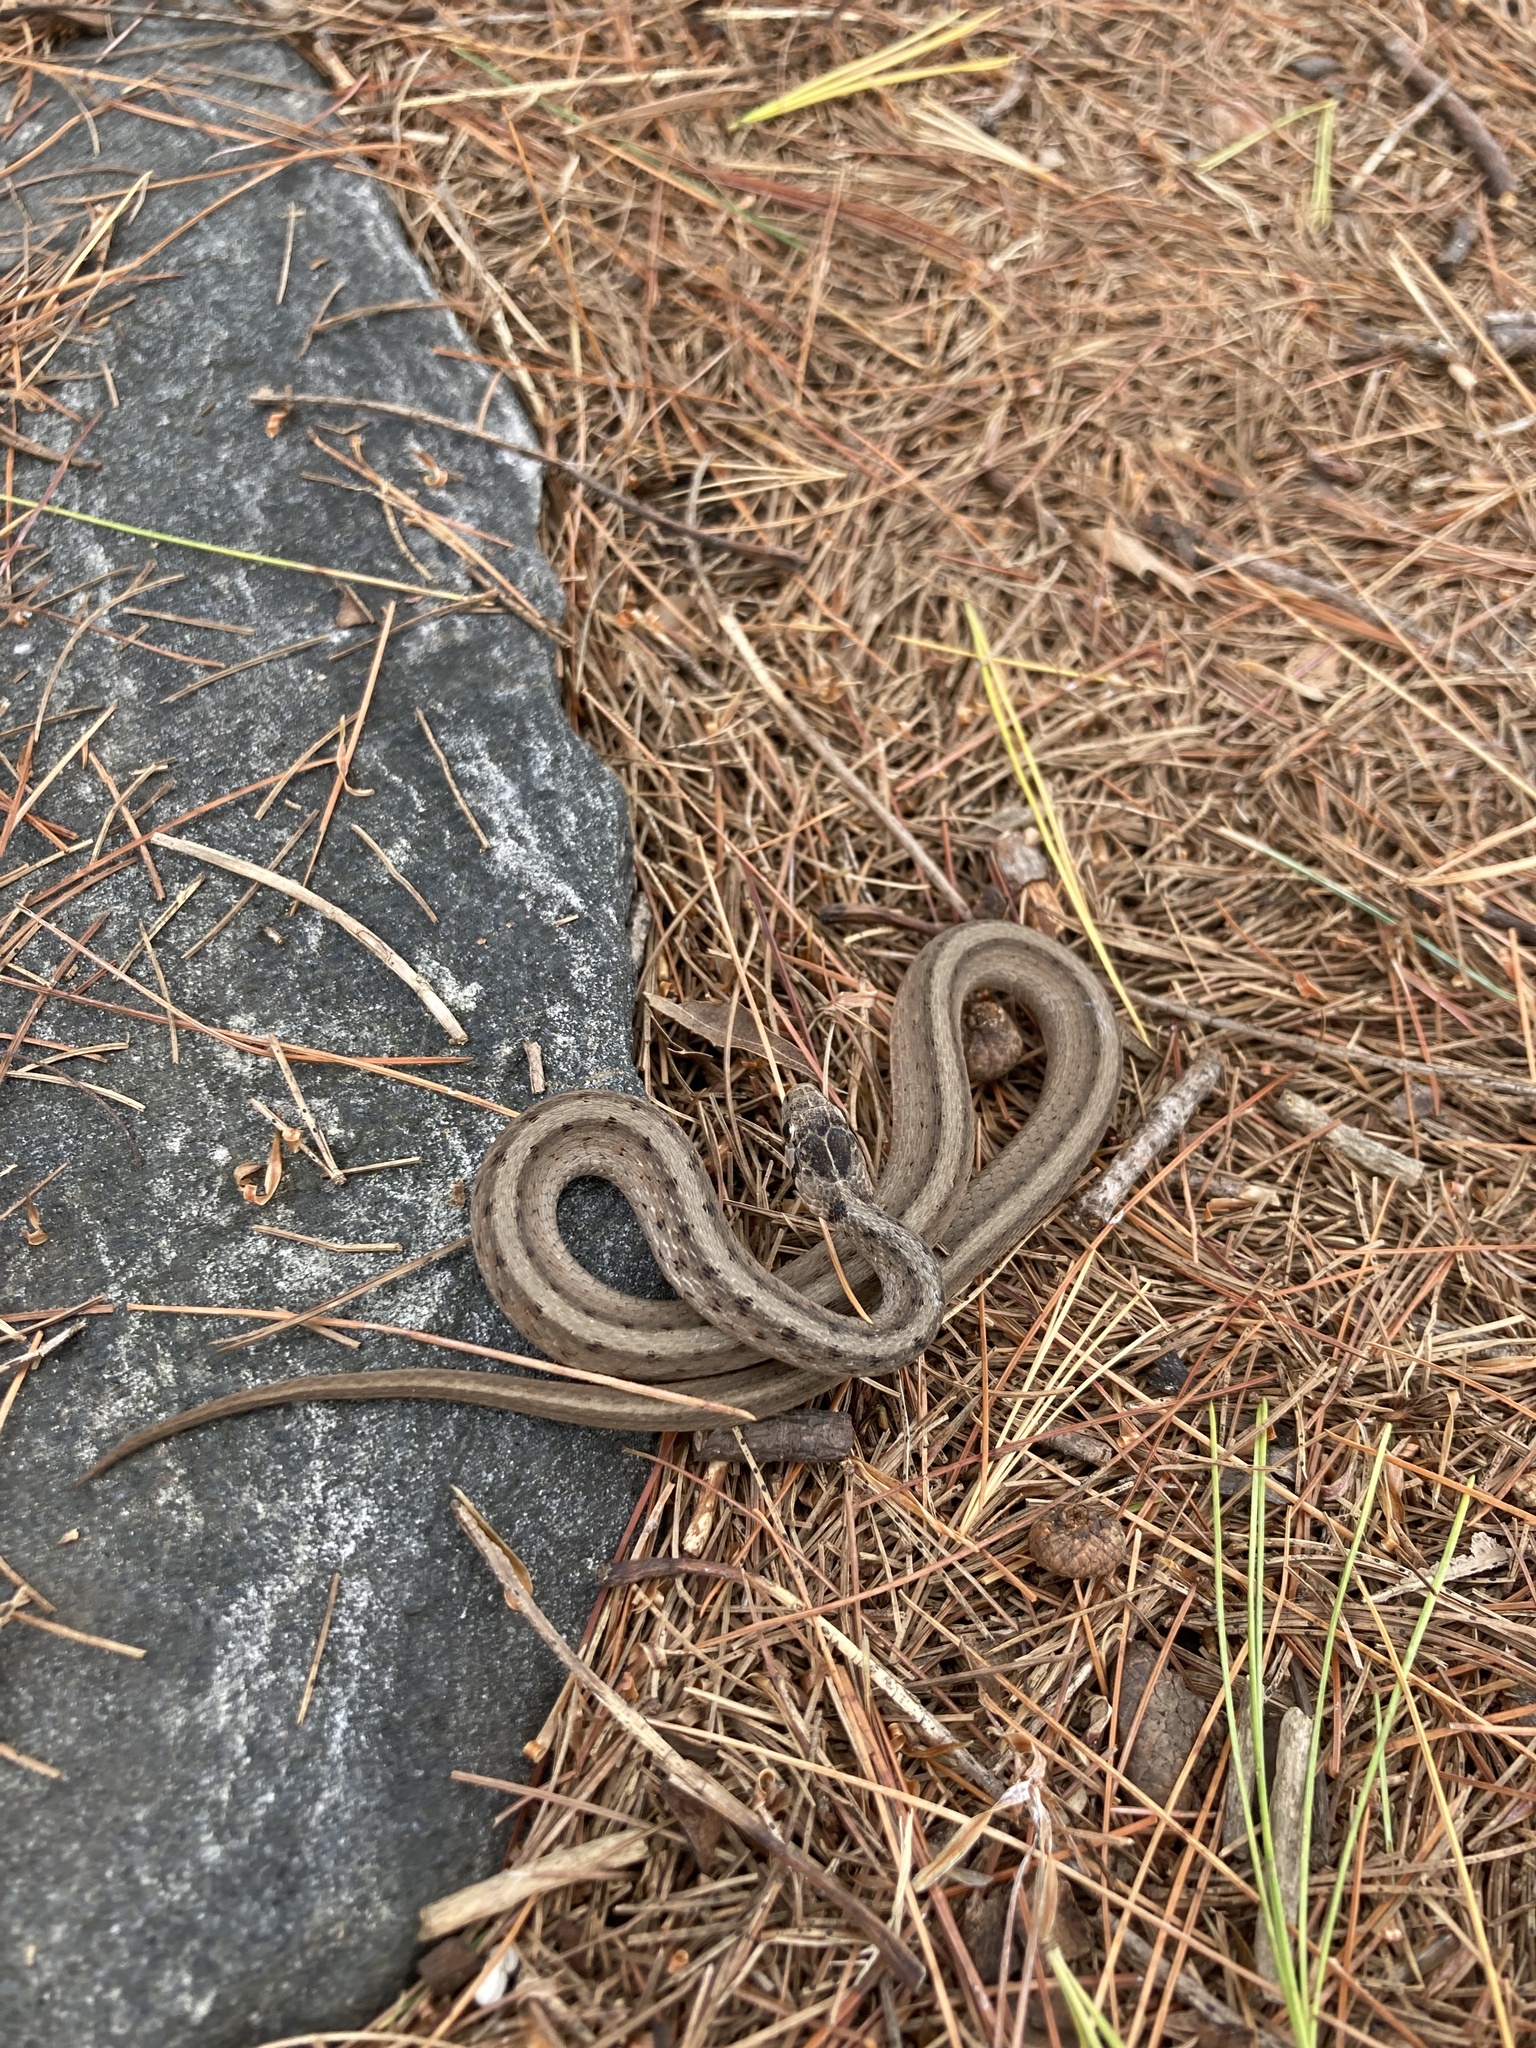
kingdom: Animalia
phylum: Chordata
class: Squamata
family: Colubridae
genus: Storeria
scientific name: Storeria dekayi
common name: (dekay’s) brown snake
